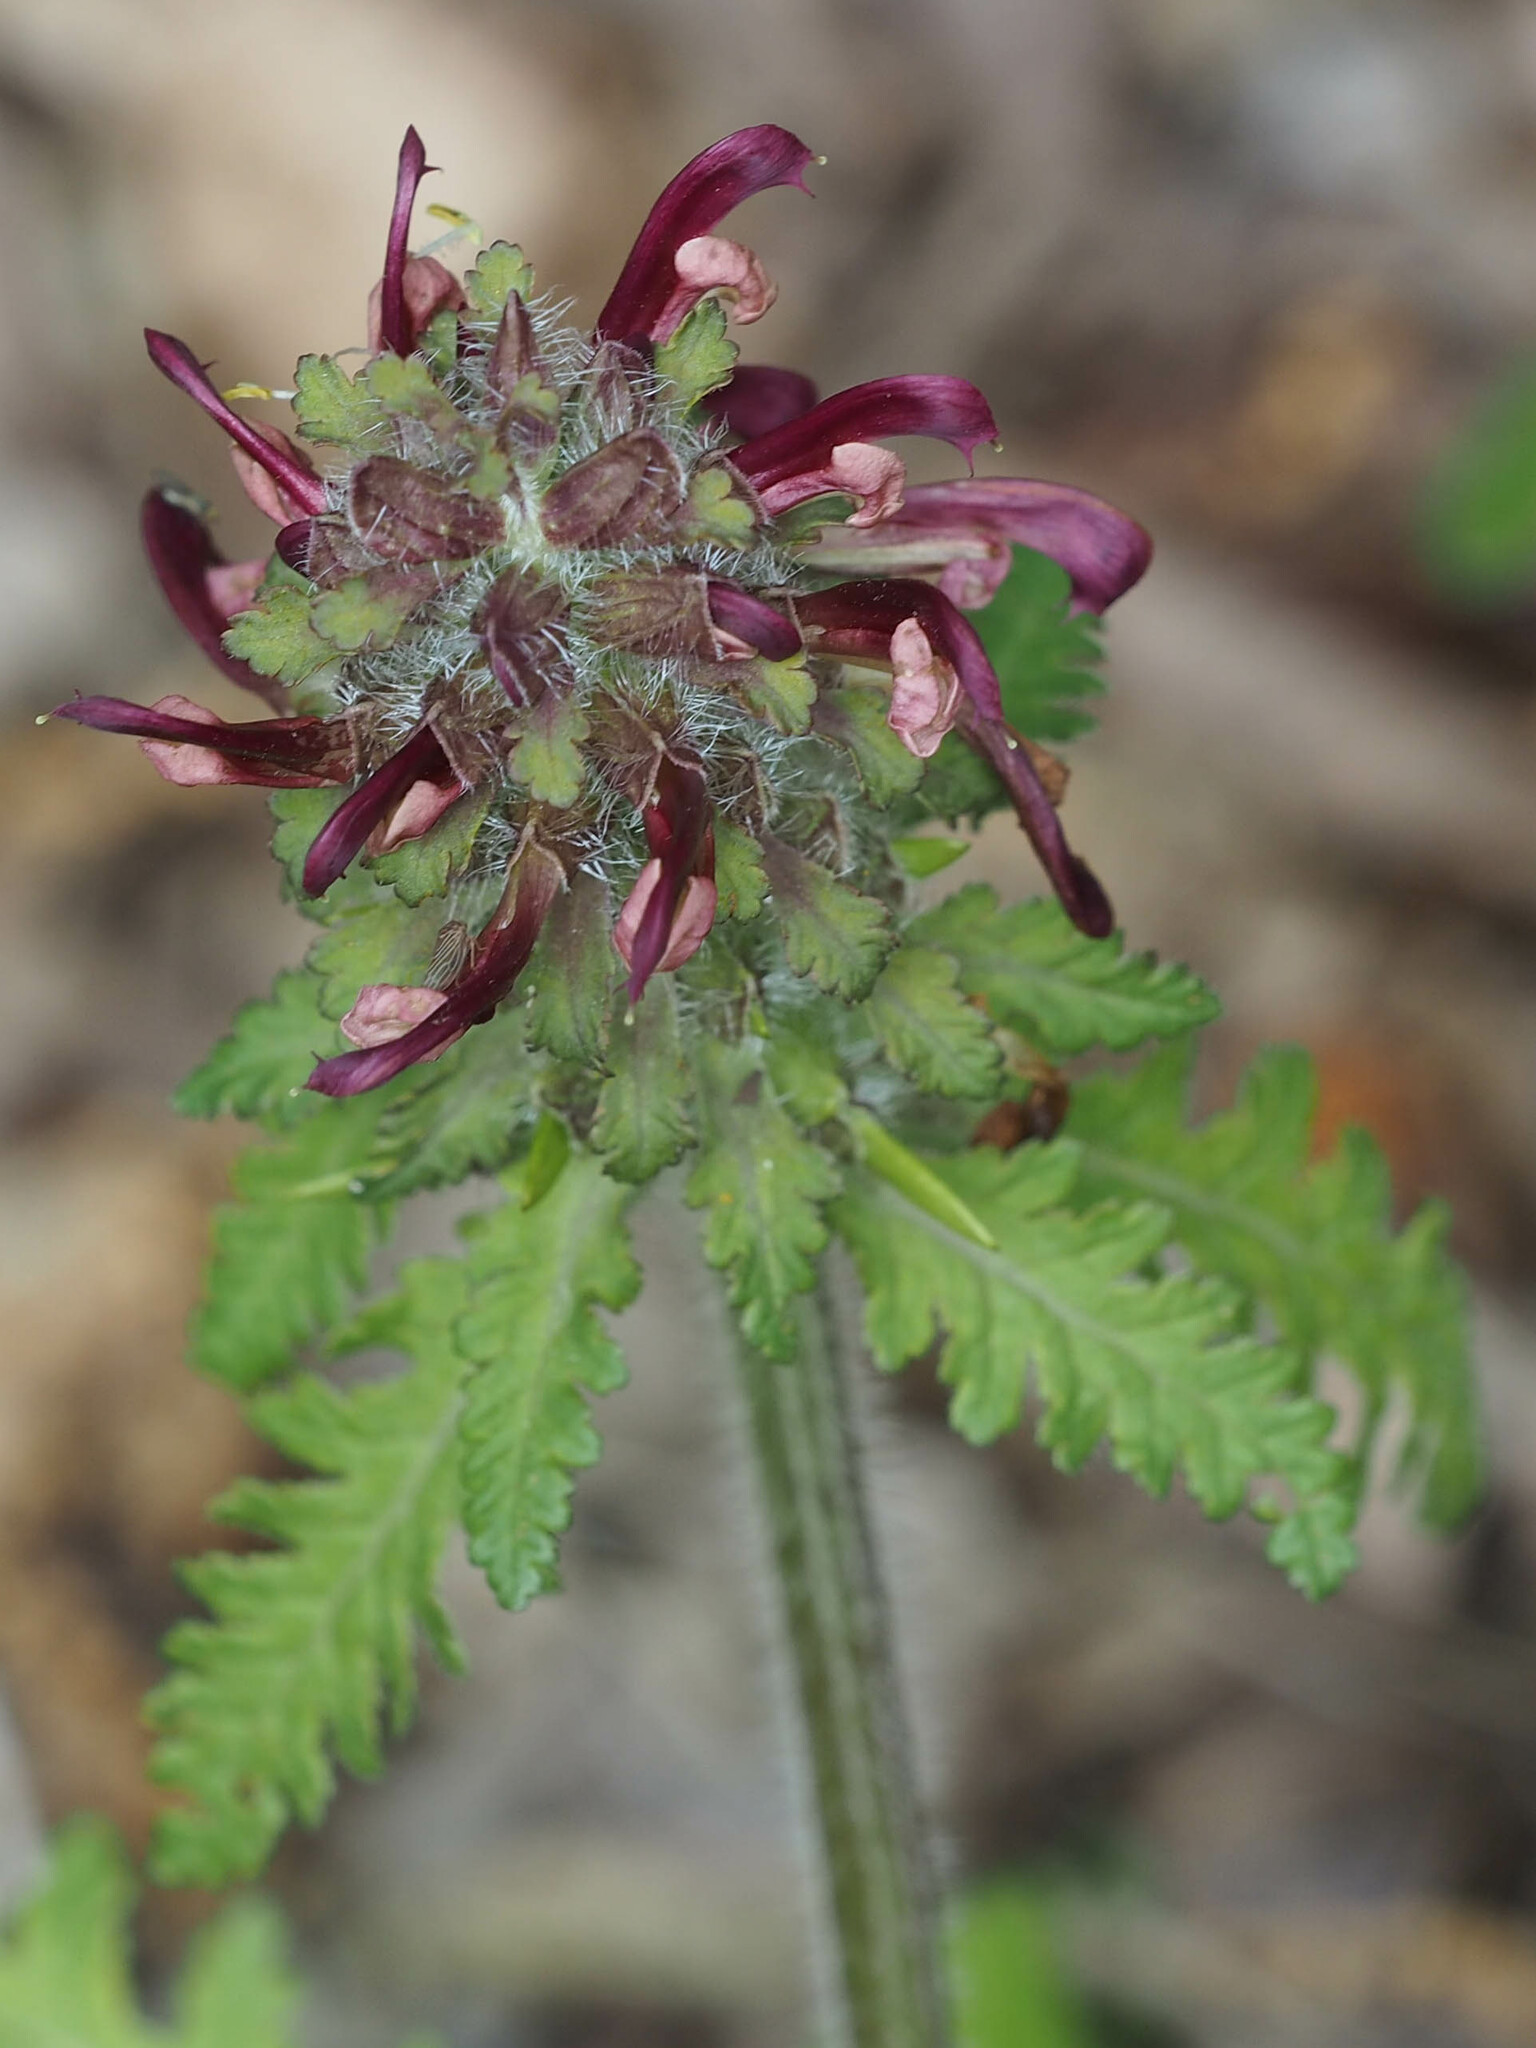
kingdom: Plantae
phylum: Tracheophyta
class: Magnoliopsida
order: Lamiales
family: Orobanchaceae
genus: Pedicularis
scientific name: Pedicularis canadensis
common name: Early lousewort
